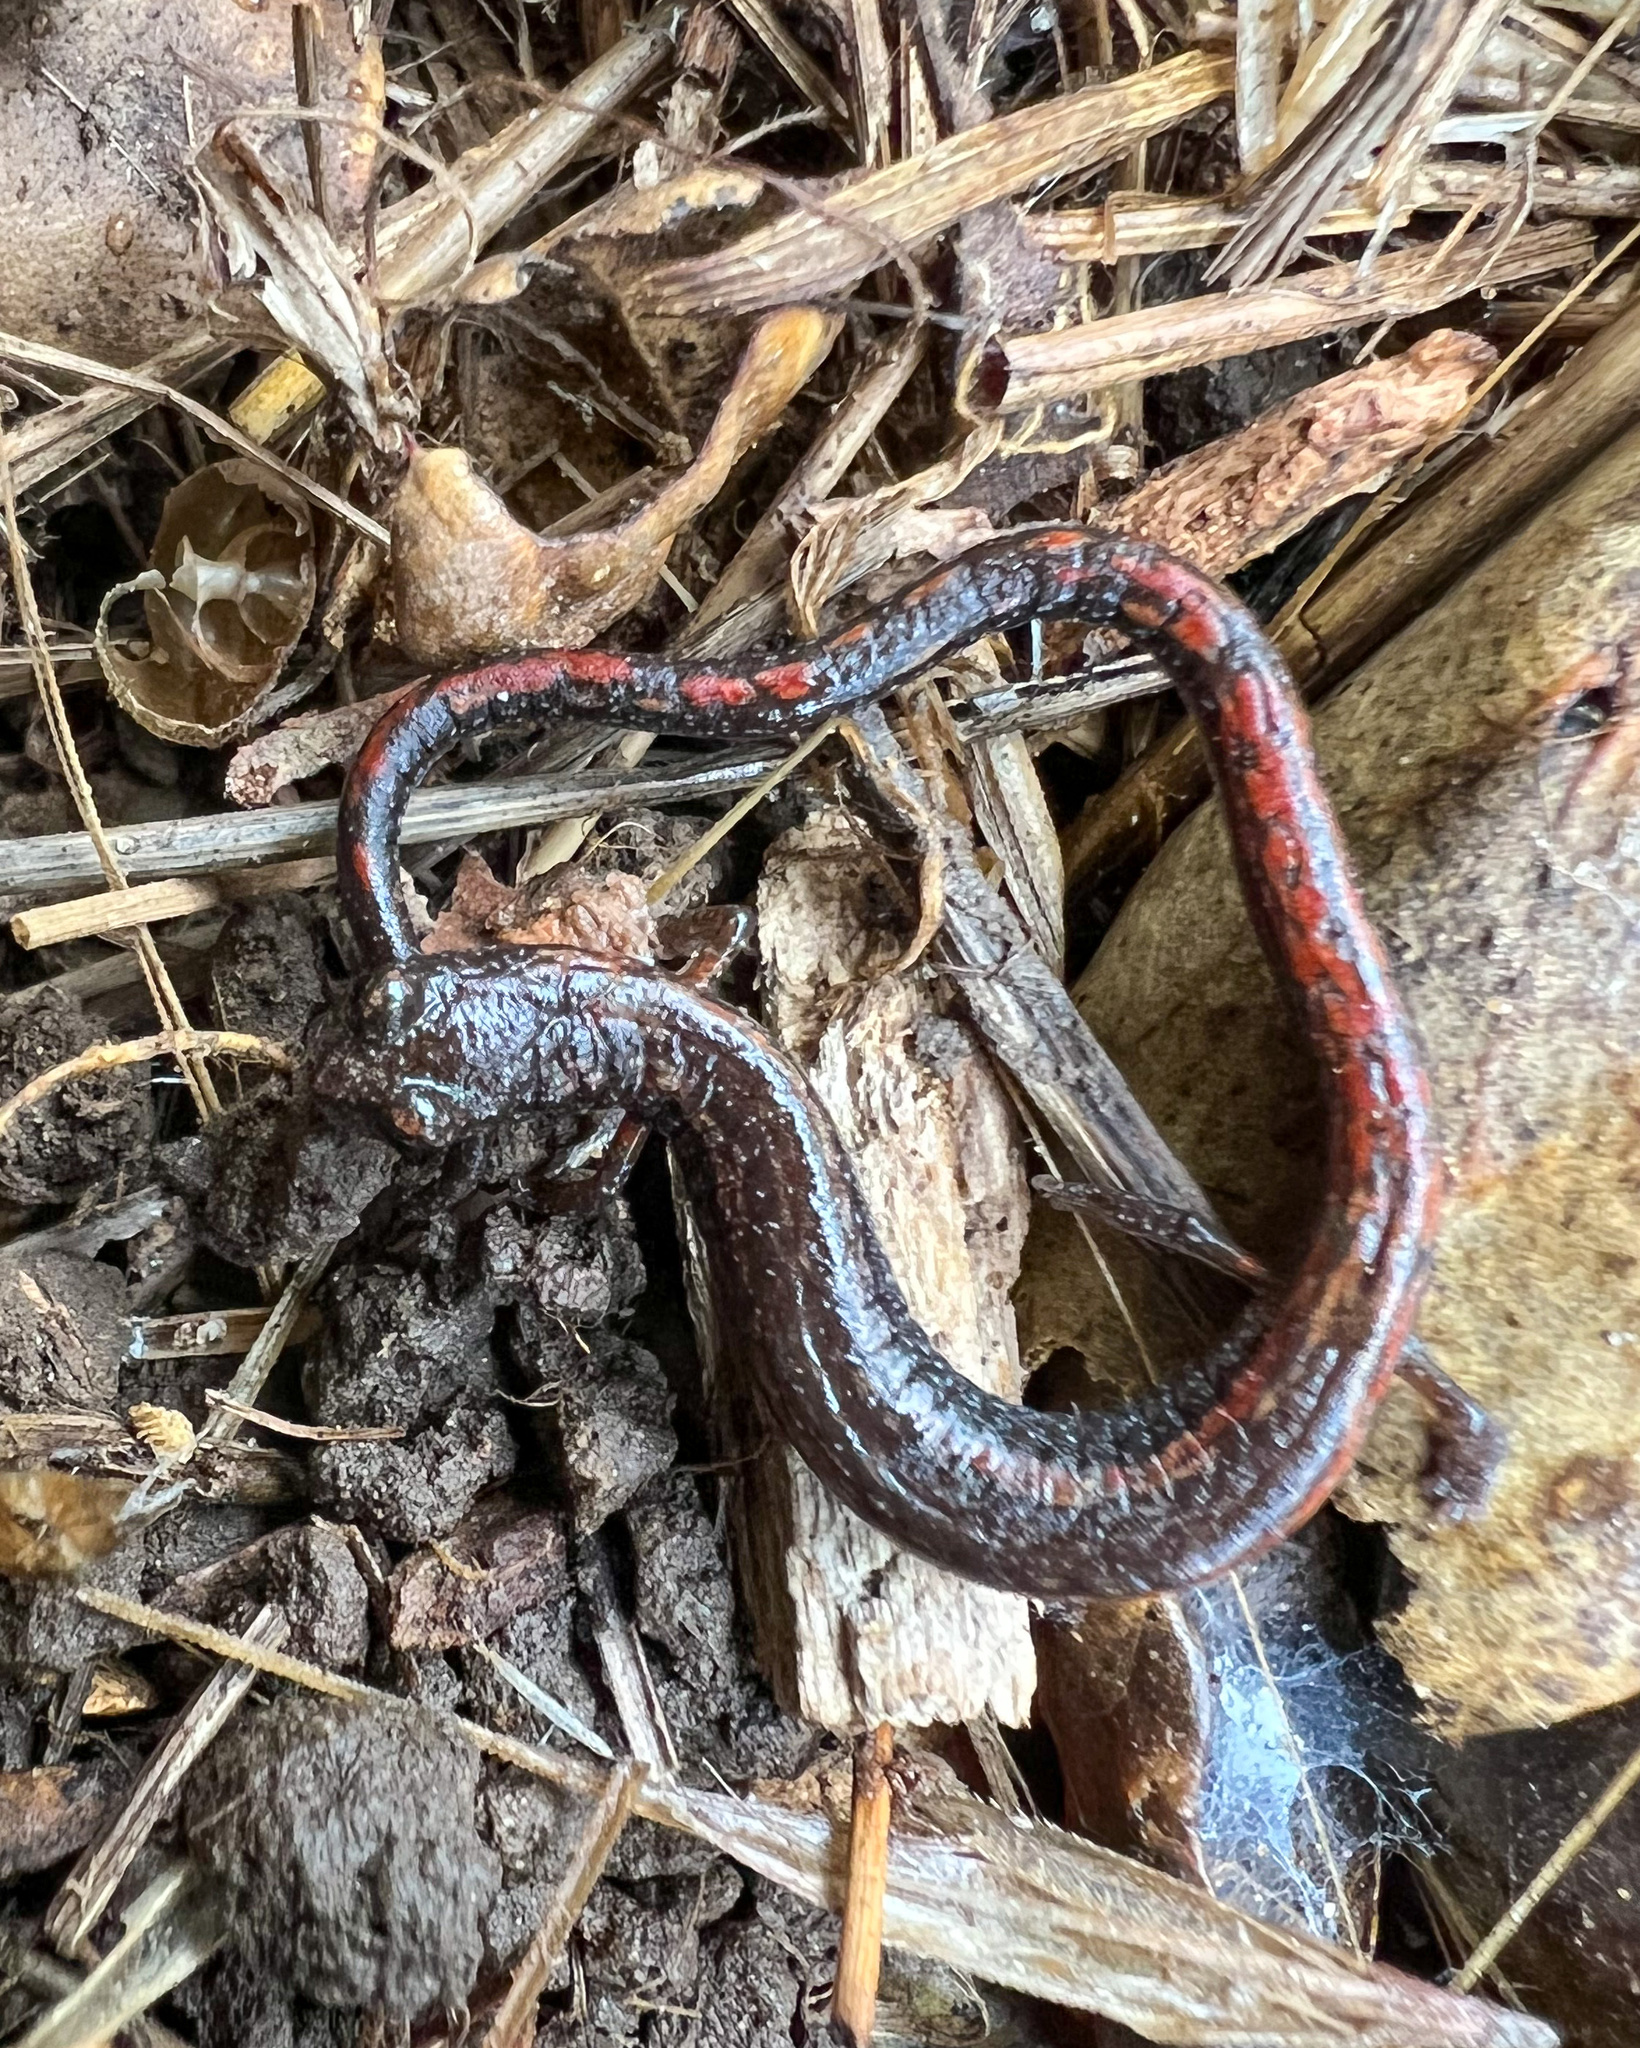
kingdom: Animalia
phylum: Chordata
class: Amphibia
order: Caudata
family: Plethodontidae
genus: Batrachoseps
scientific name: Batrachoseps nigriventris
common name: Black-bellied slender salamander
